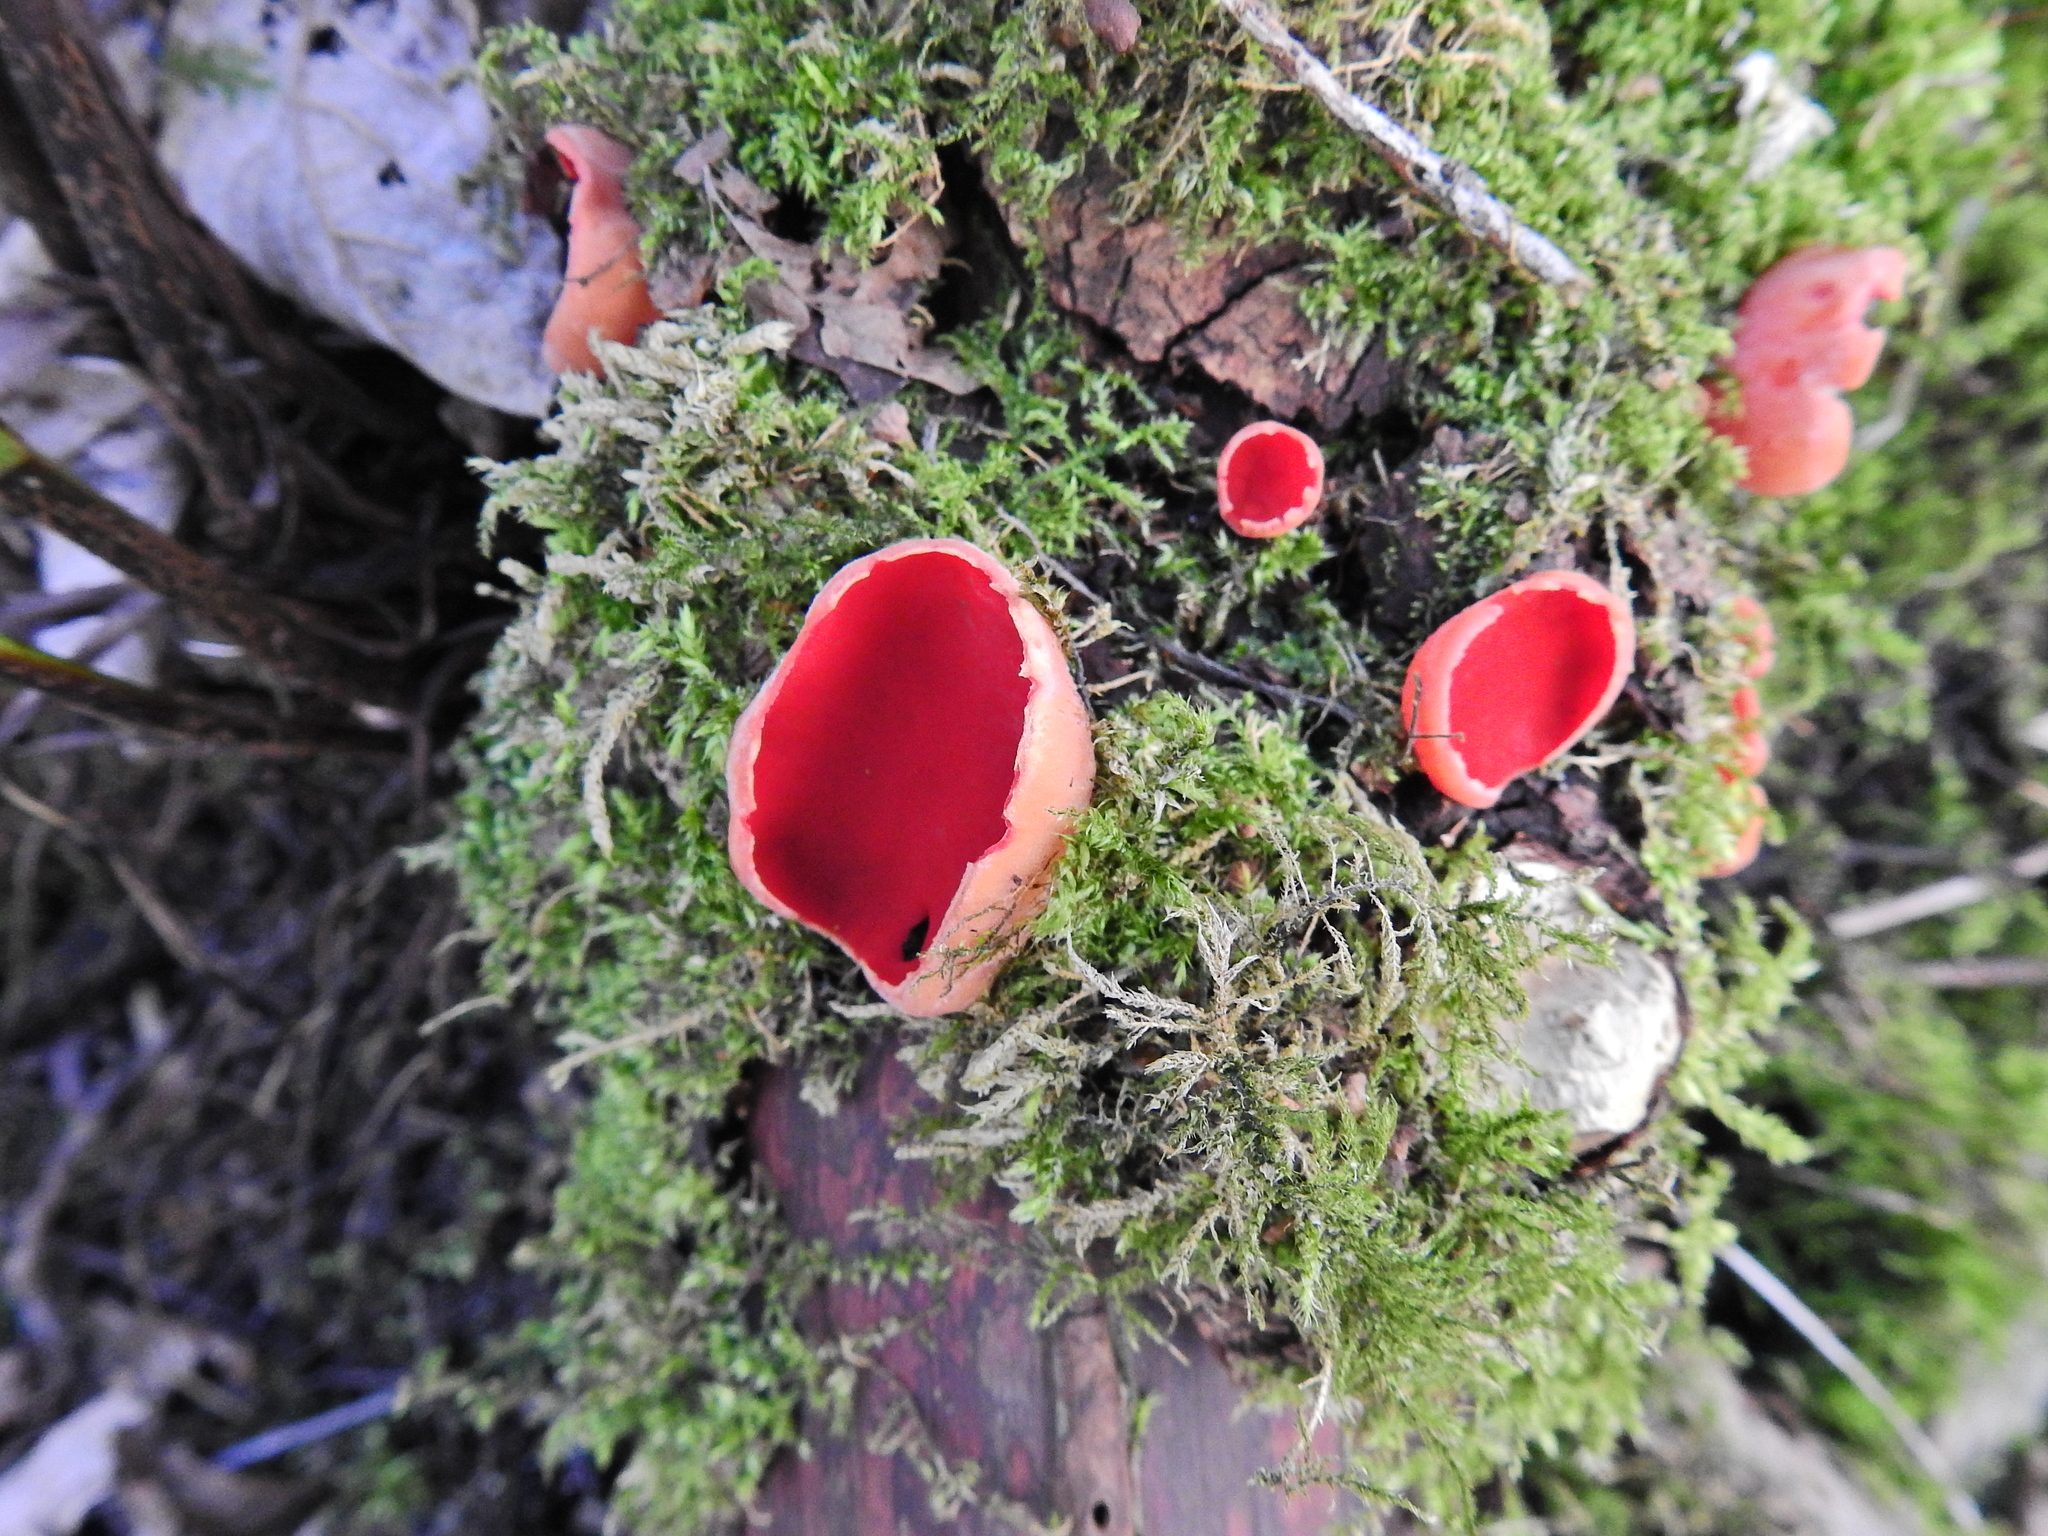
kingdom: Fungi
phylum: Ascomycota
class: Pezizomycetes
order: Pezizales
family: Sarcoscyphaceae
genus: Sarcoscypha
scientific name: Sarcoscypha
